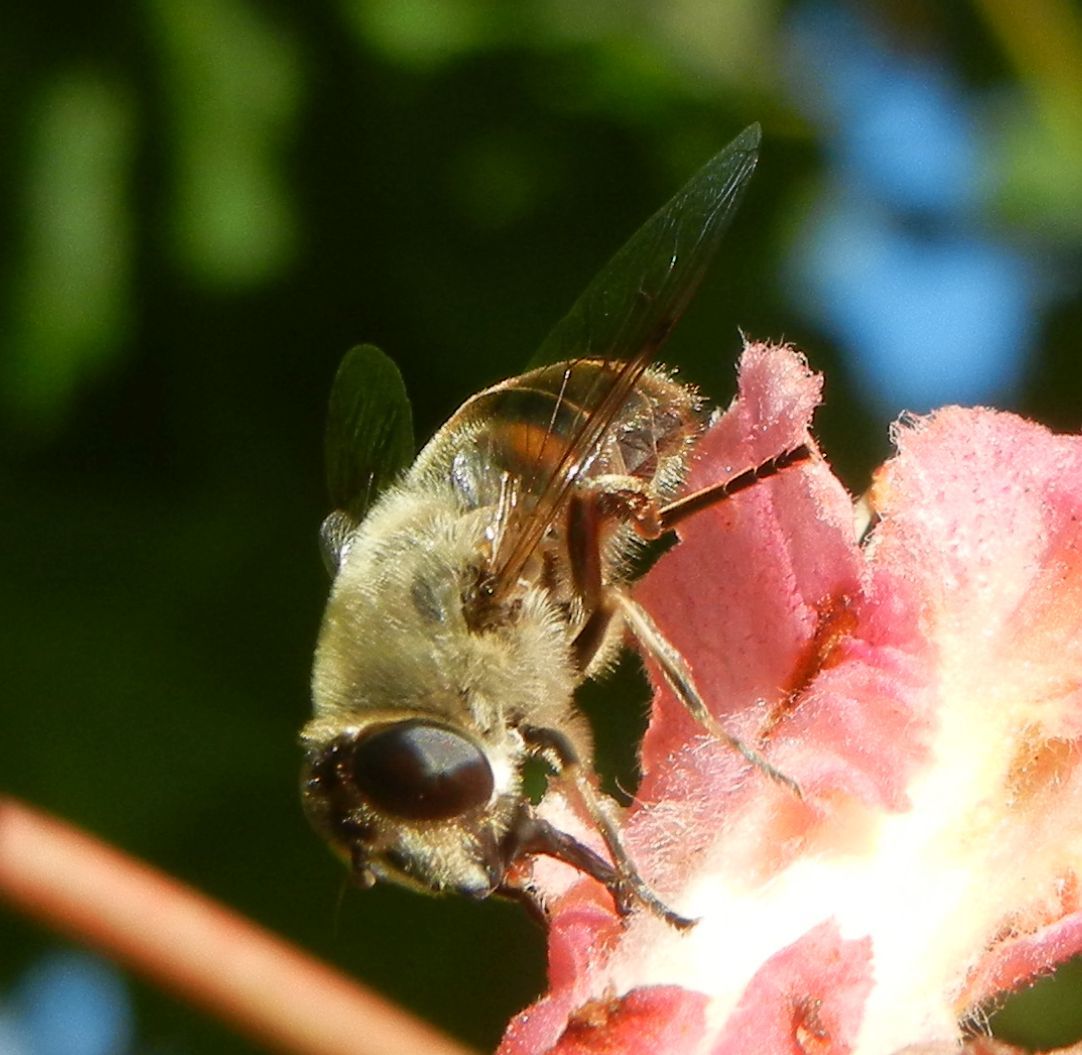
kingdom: Animalia
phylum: Arthropoda
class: Insecta
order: Diptera
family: Syrphidae
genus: Eristalis
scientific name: Eristalis tenax
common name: Drone fly
